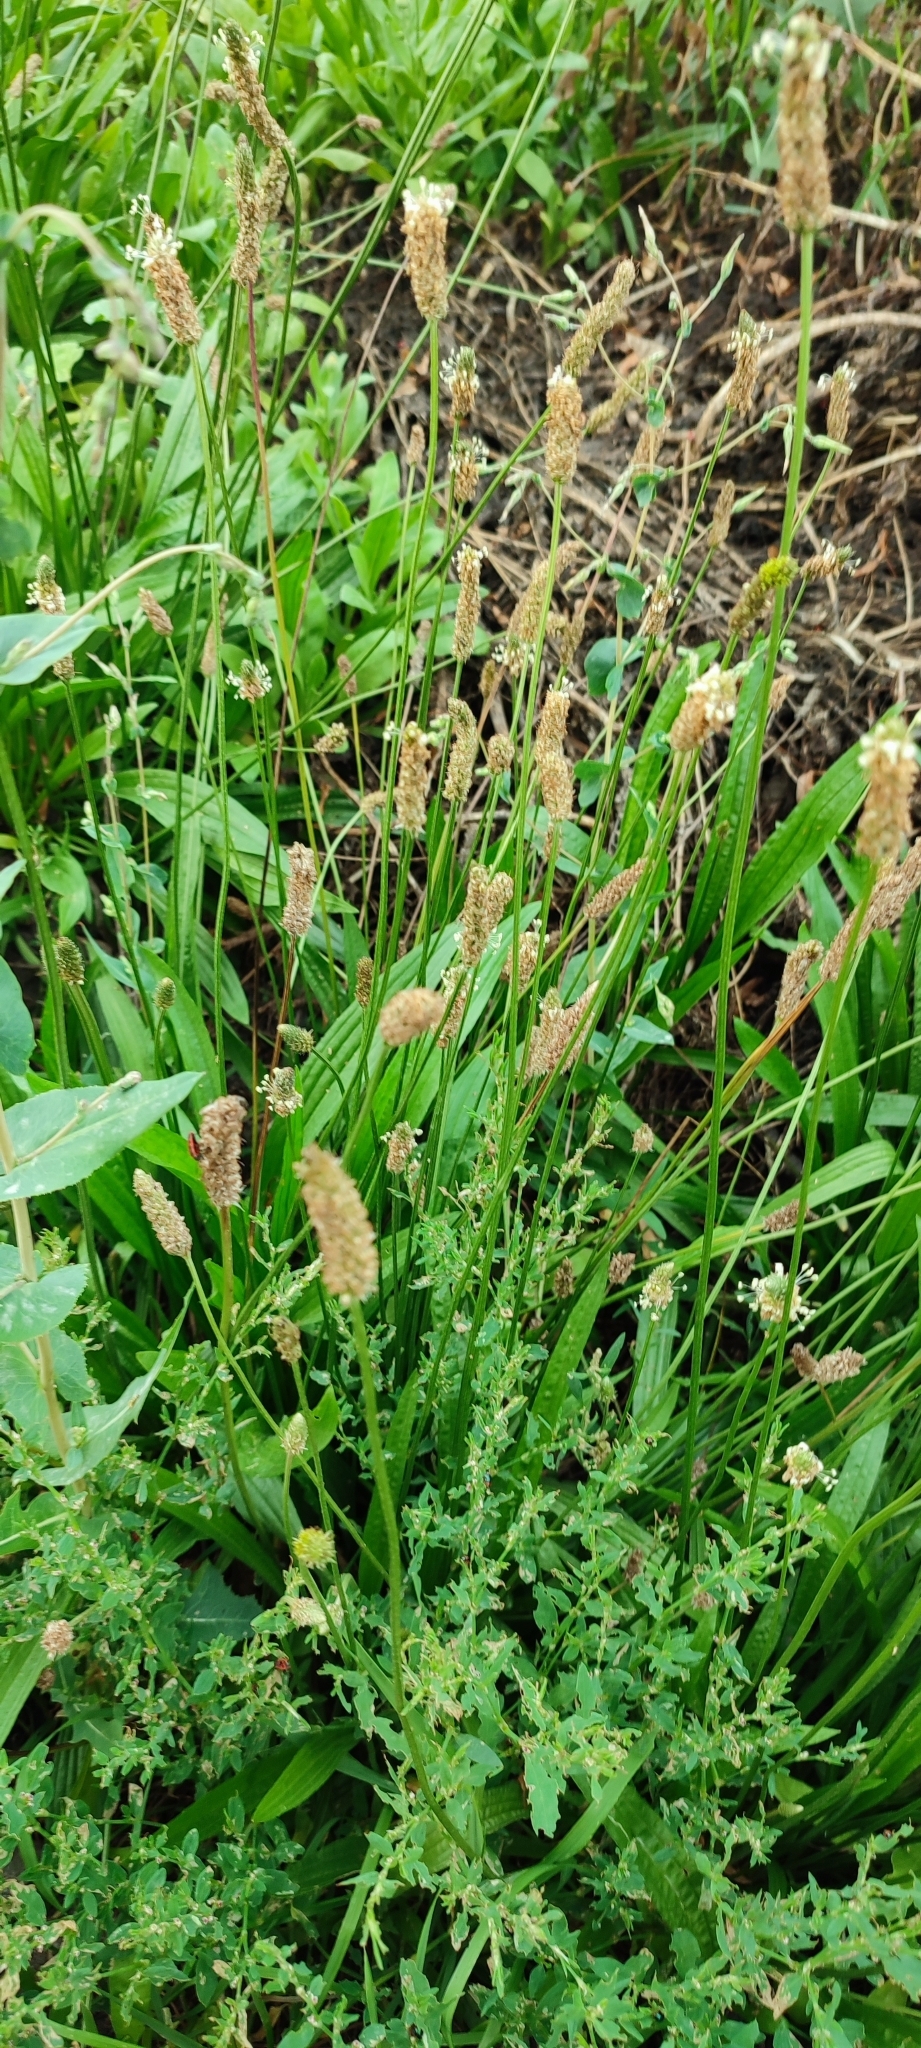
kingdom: Plantae
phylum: Tracheophyta
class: Magnoliopsida
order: Lamiales
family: Plantaginaceae
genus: Plantago
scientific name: Plantago lanceolata
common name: Ribwort plantain
